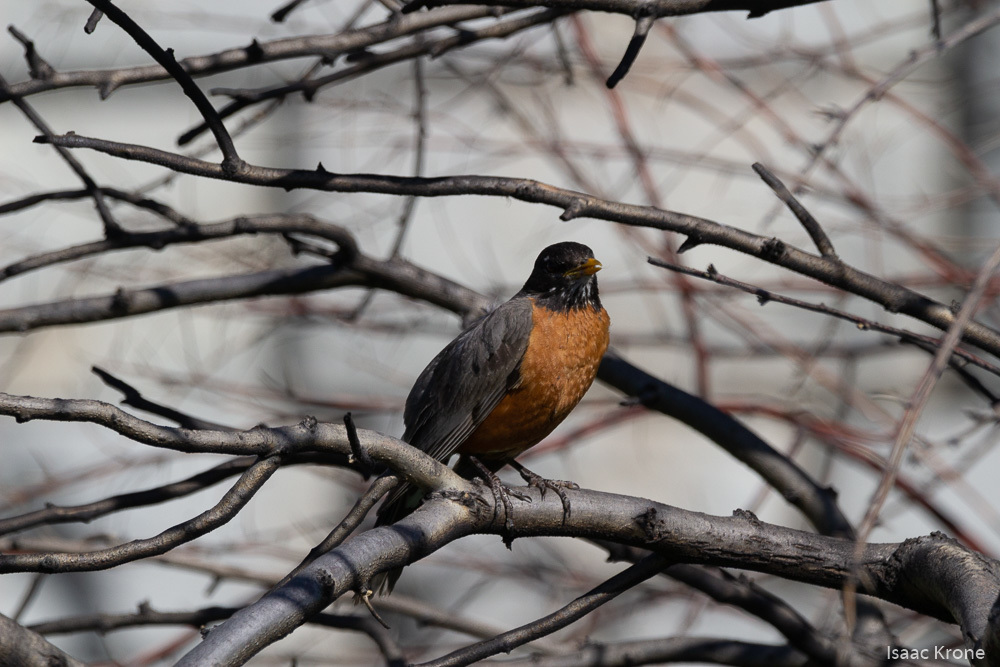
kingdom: Animalia
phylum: Chordata
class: Aves
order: Passeriformes
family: Turdidae
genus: Turdus
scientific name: Turdus migratorius
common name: American robin
